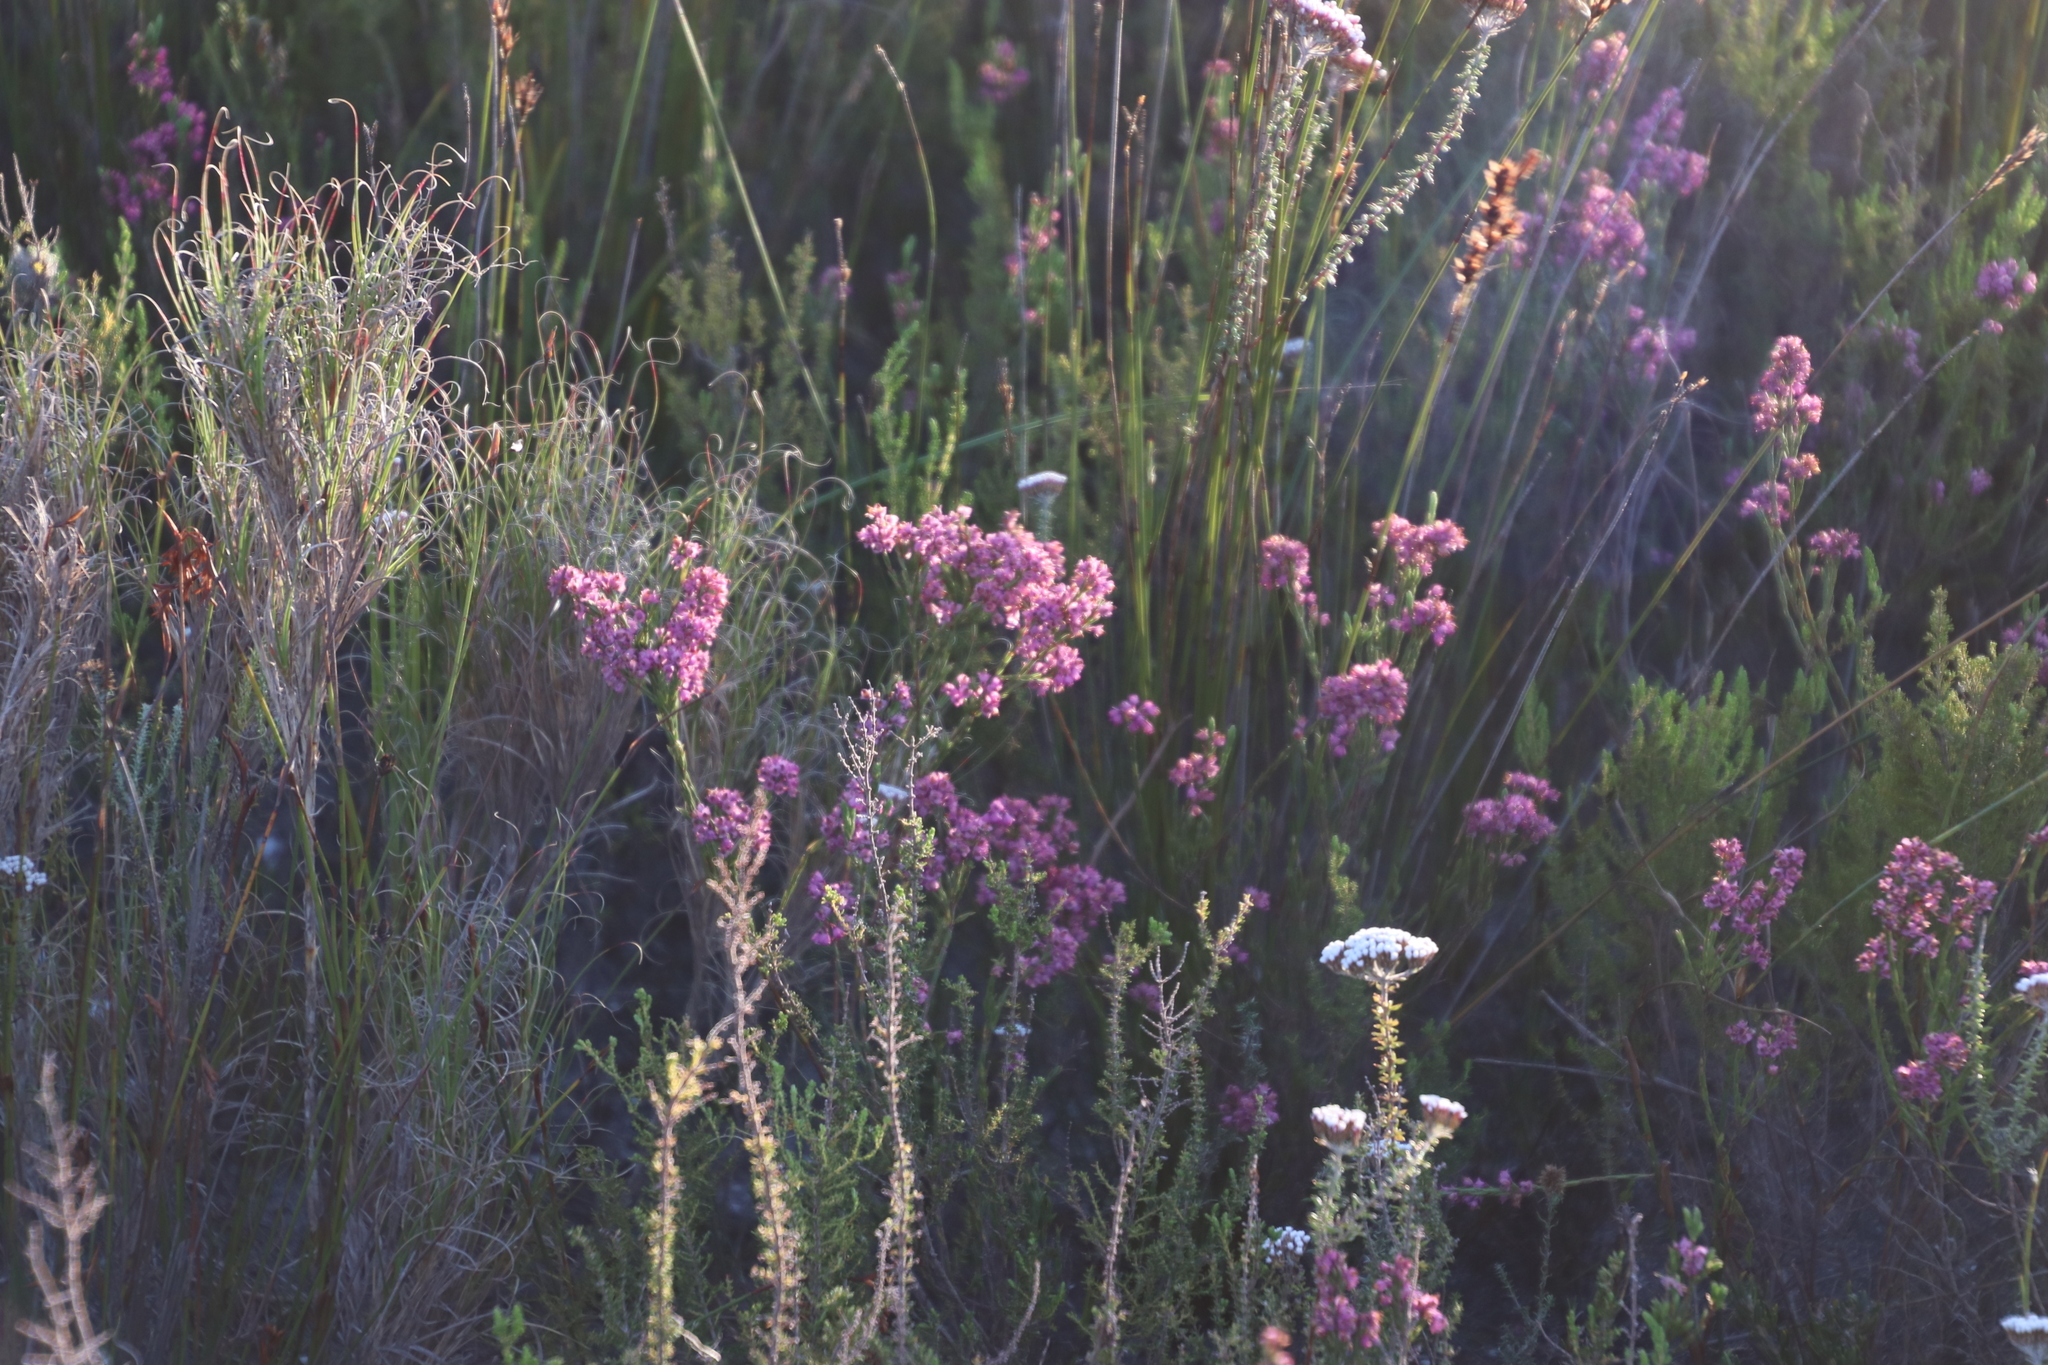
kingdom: Plantae
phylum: Tracheophyta
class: Magnoliopsida
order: Ericales
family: Ericaceae
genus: Erica
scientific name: Erica corifolia
